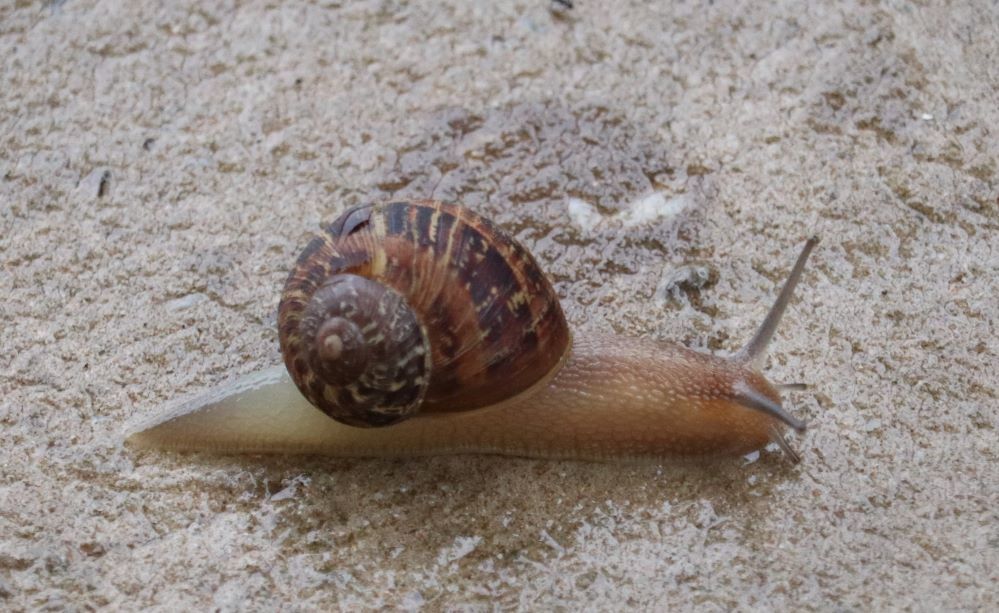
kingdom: Animalia
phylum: Mollusca
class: Gastropoda
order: Stylommatophora
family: Helicidae
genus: Cornu
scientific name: Cornu aspersum
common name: Brown garden snail
